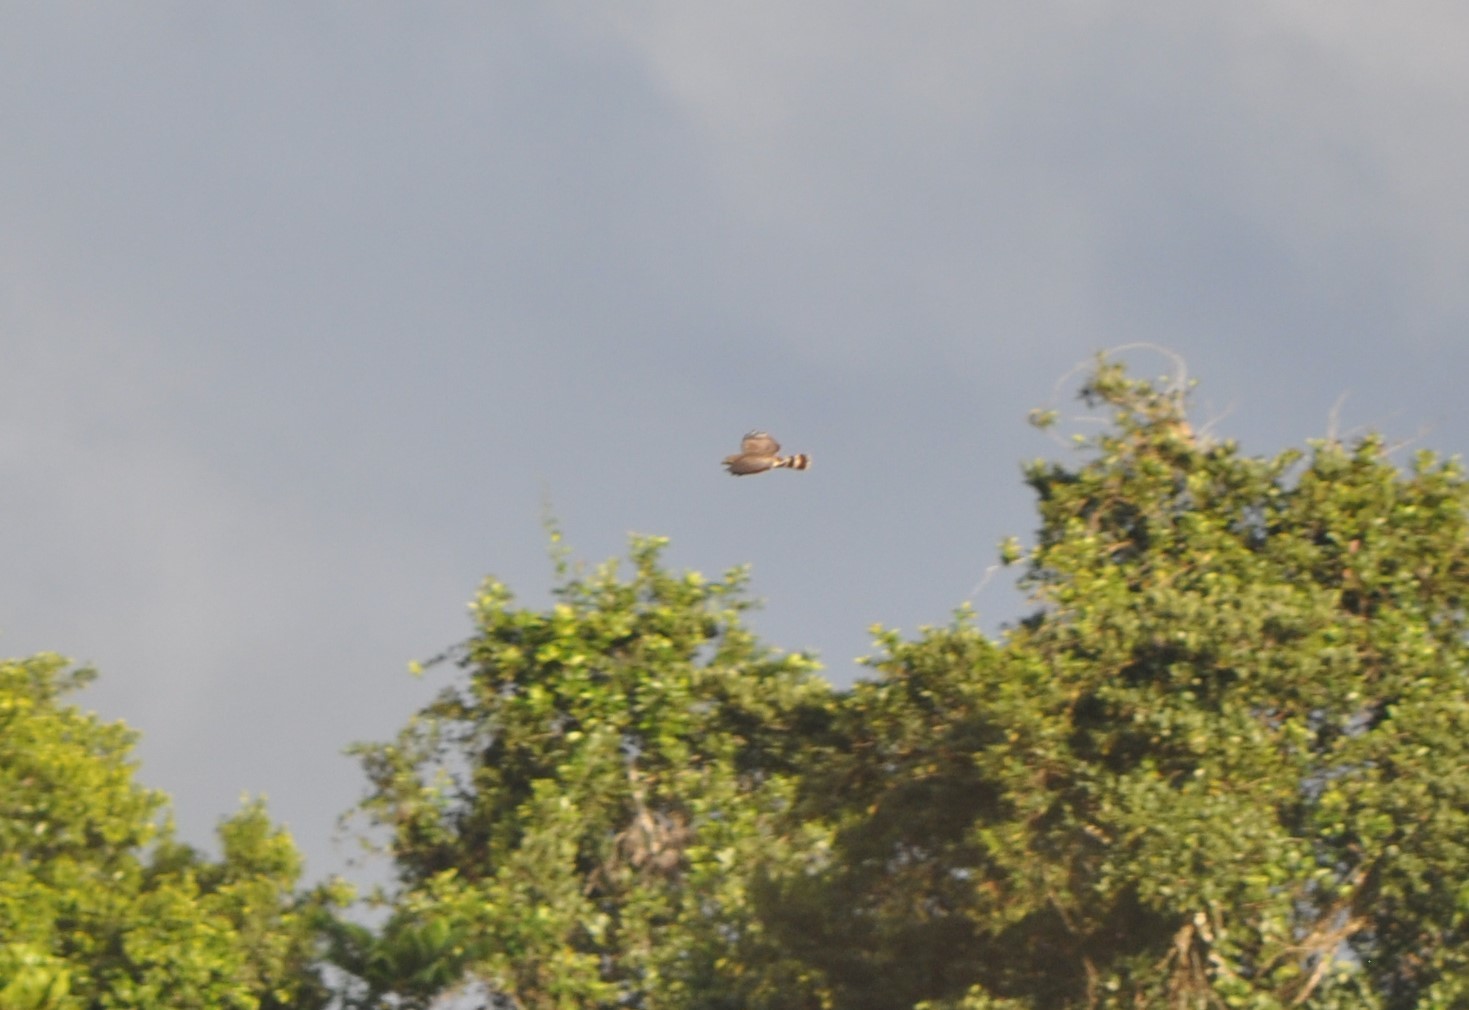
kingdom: Animalia
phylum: Chordata
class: Aves
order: Accipitriformes
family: Accipitridae
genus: Rupornis
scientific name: Rupornis magnirostris
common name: Roadside hawk
